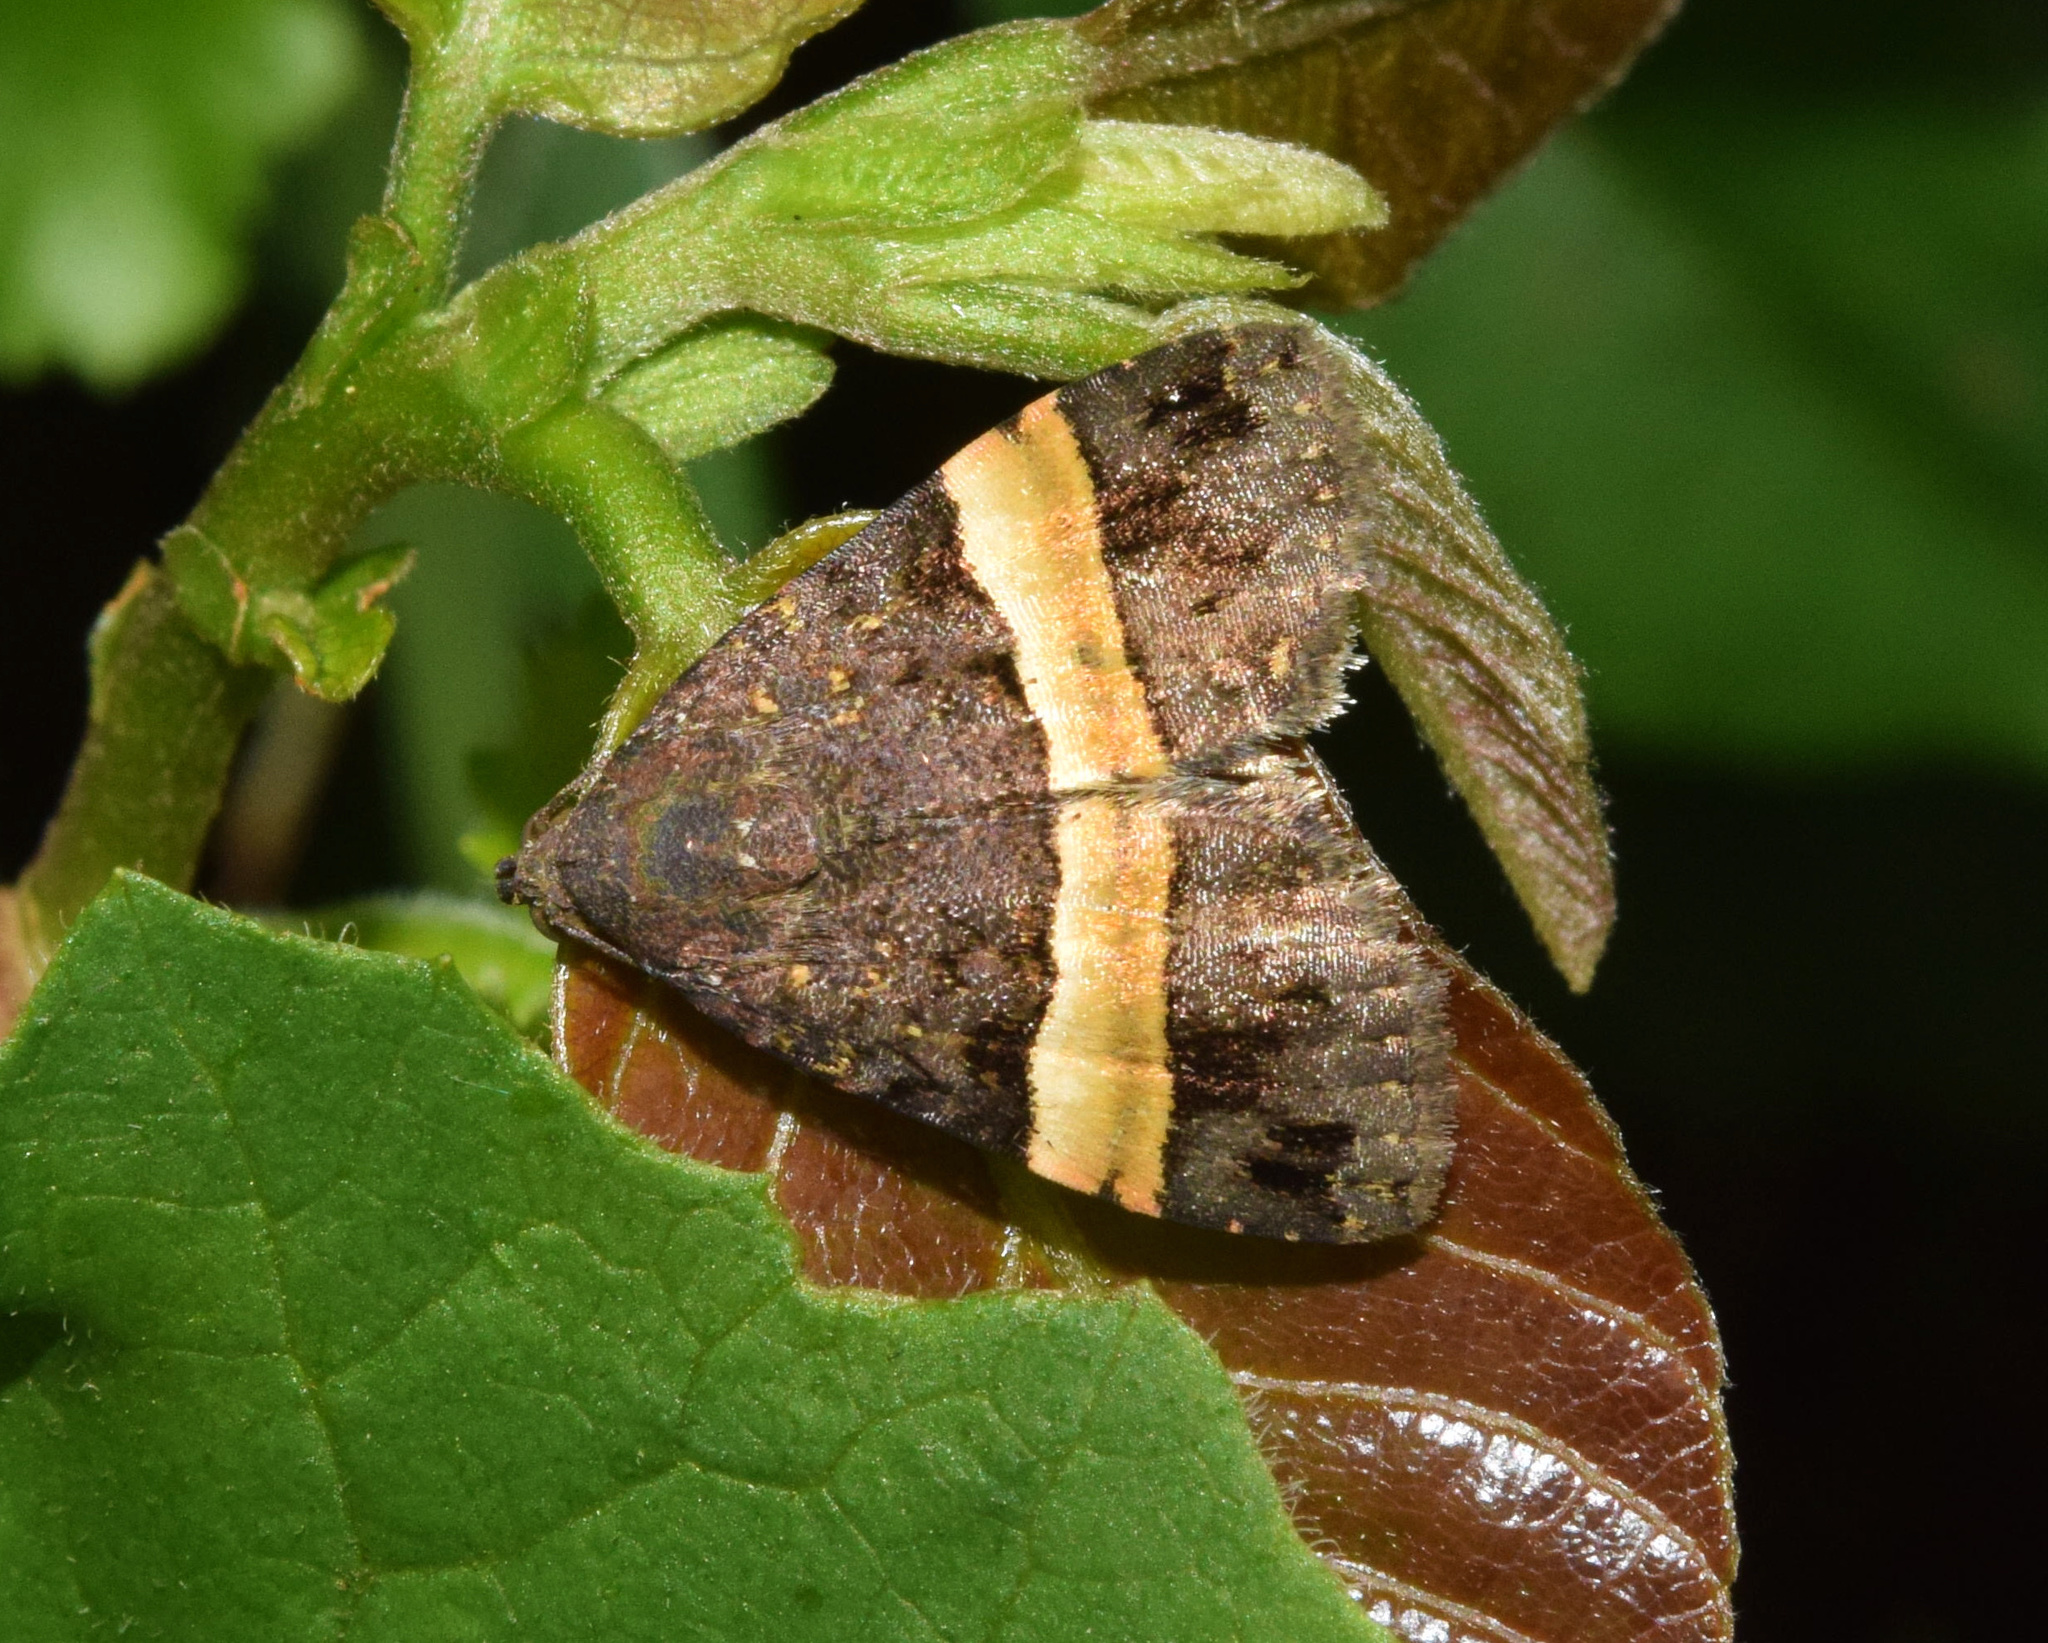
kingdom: Animalia
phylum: Arthropoda
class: Insecta
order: Lepidoptera
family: Noctuidae
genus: Ozarba
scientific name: Ozarba abscissa
